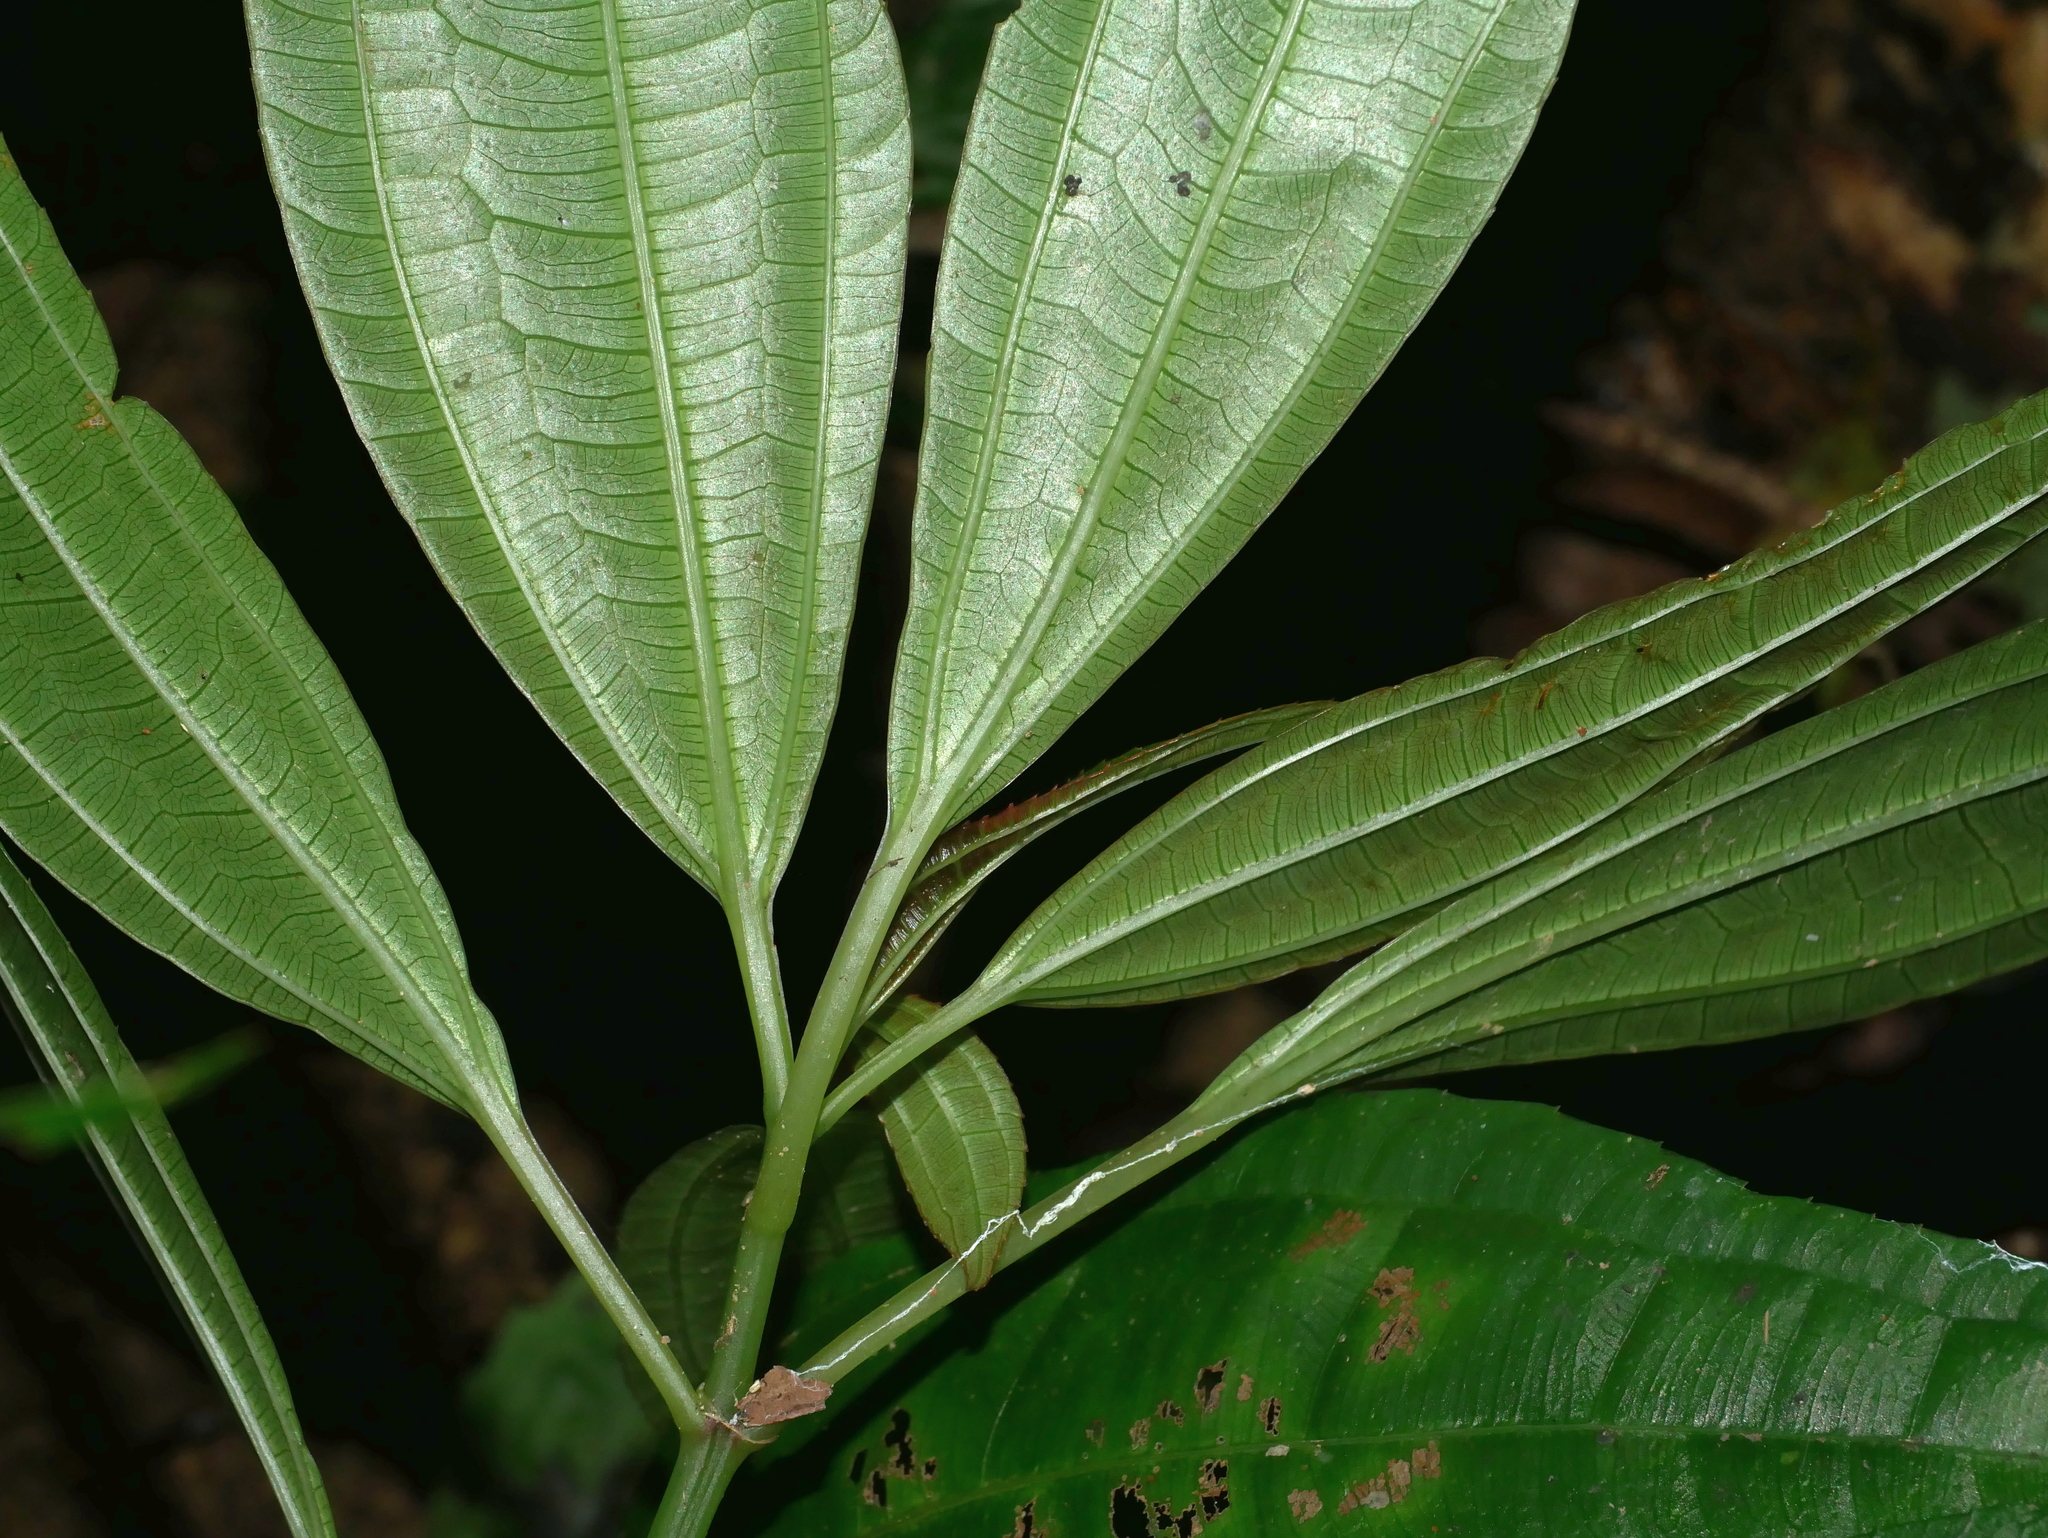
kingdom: Plantae
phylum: Tracheophyta
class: Magnoliopsida
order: Rosales
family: Urticaceae
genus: Pilea
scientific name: Pilea rotundinucula
